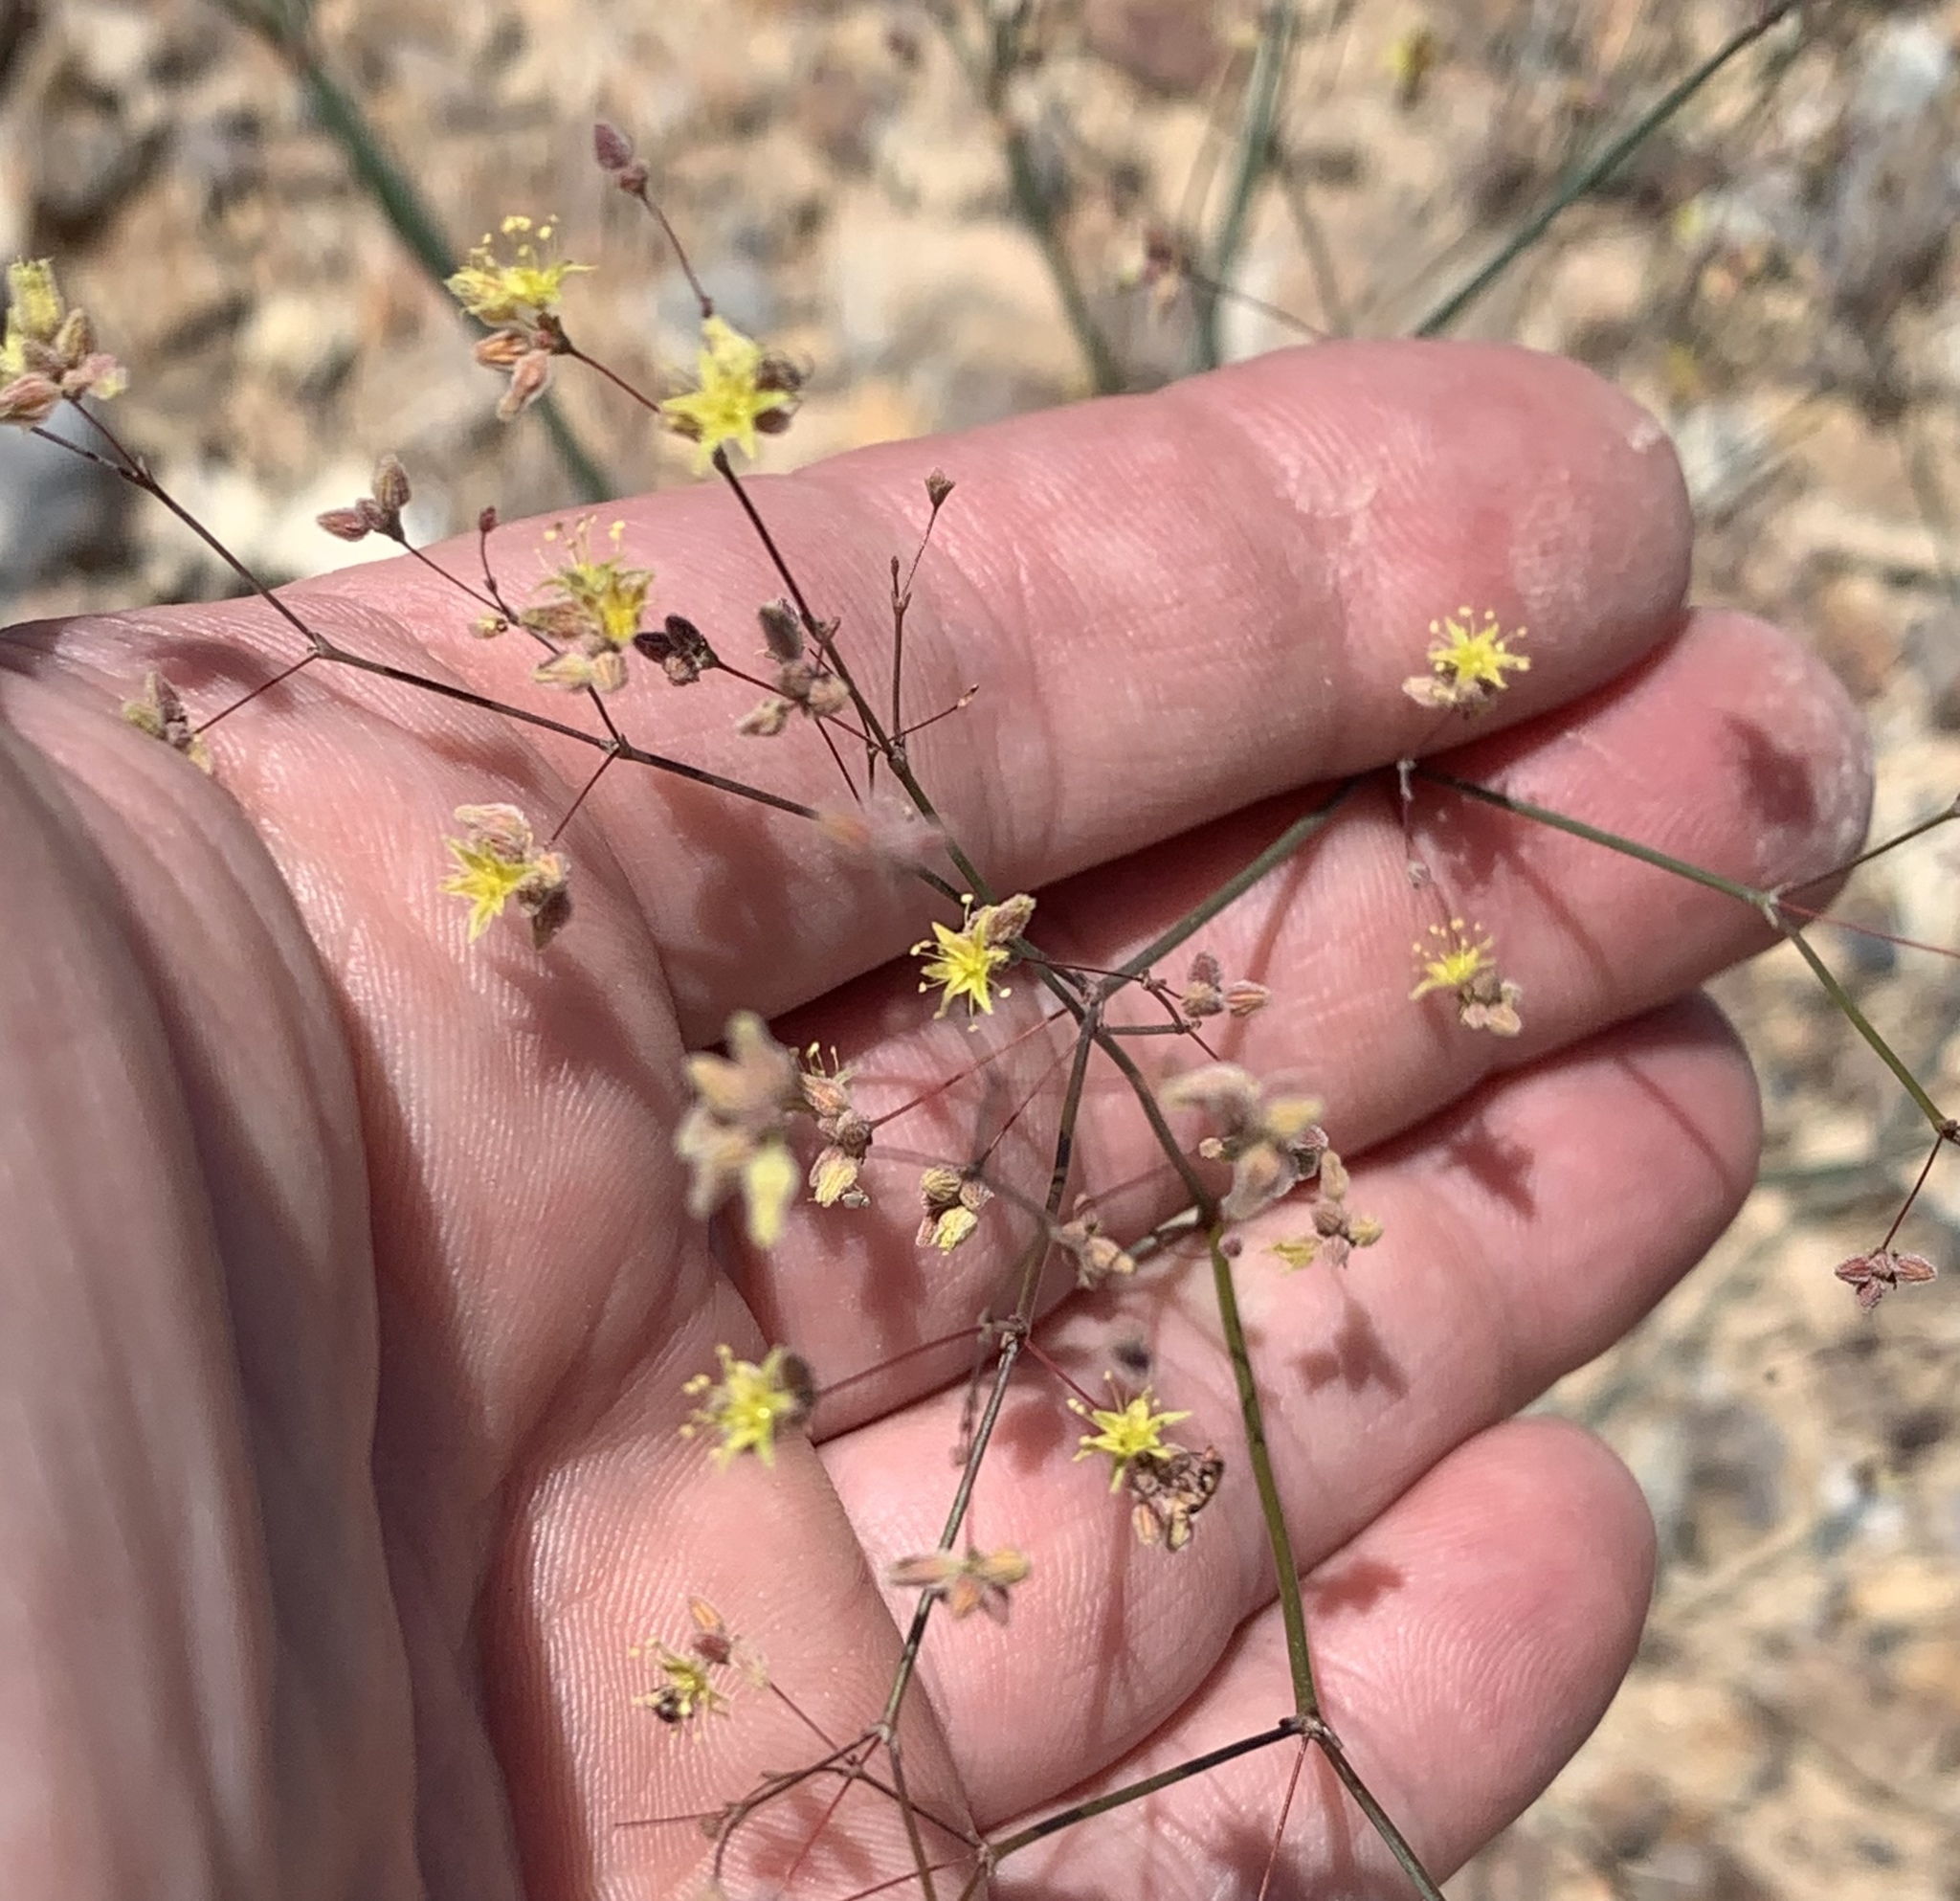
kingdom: Plantae
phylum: Tracheophyta
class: Magnoliopsida
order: Caryophyllales
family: Polygonaceae
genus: Eriogonum
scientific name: Eriogonum inflatum
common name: Desert trumpet
